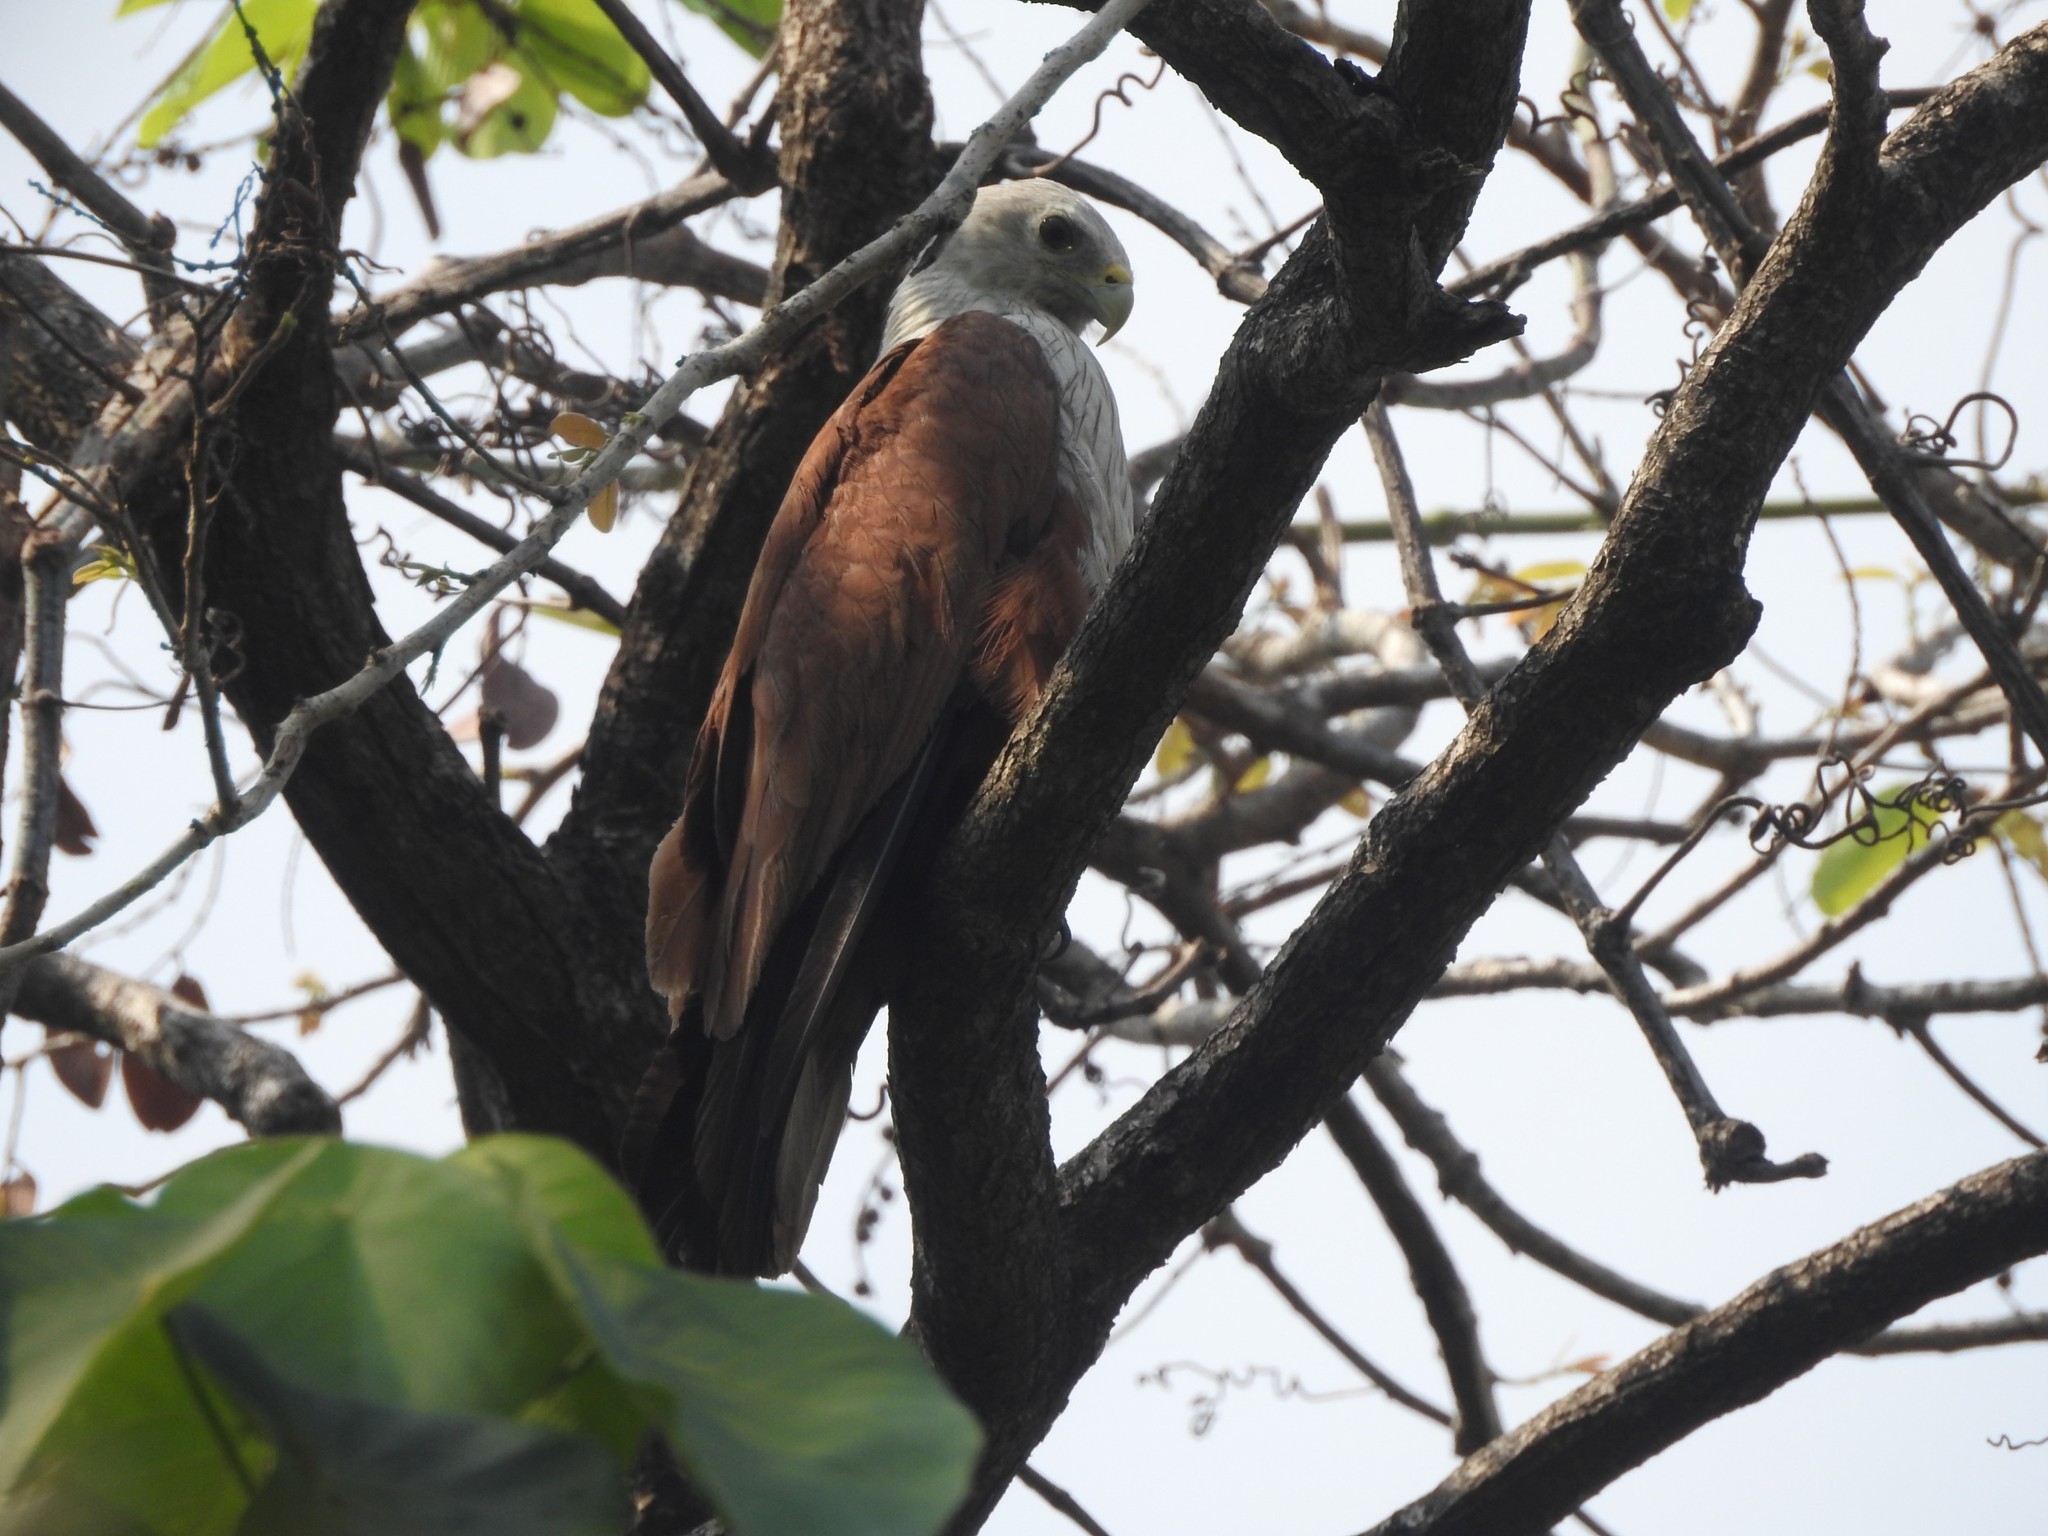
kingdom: Animalia
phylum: Chordata
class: Aves
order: Accipitriformes
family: Accipitridae
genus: Haliastur
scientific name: Haliastur indus
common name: Brahminy kite
